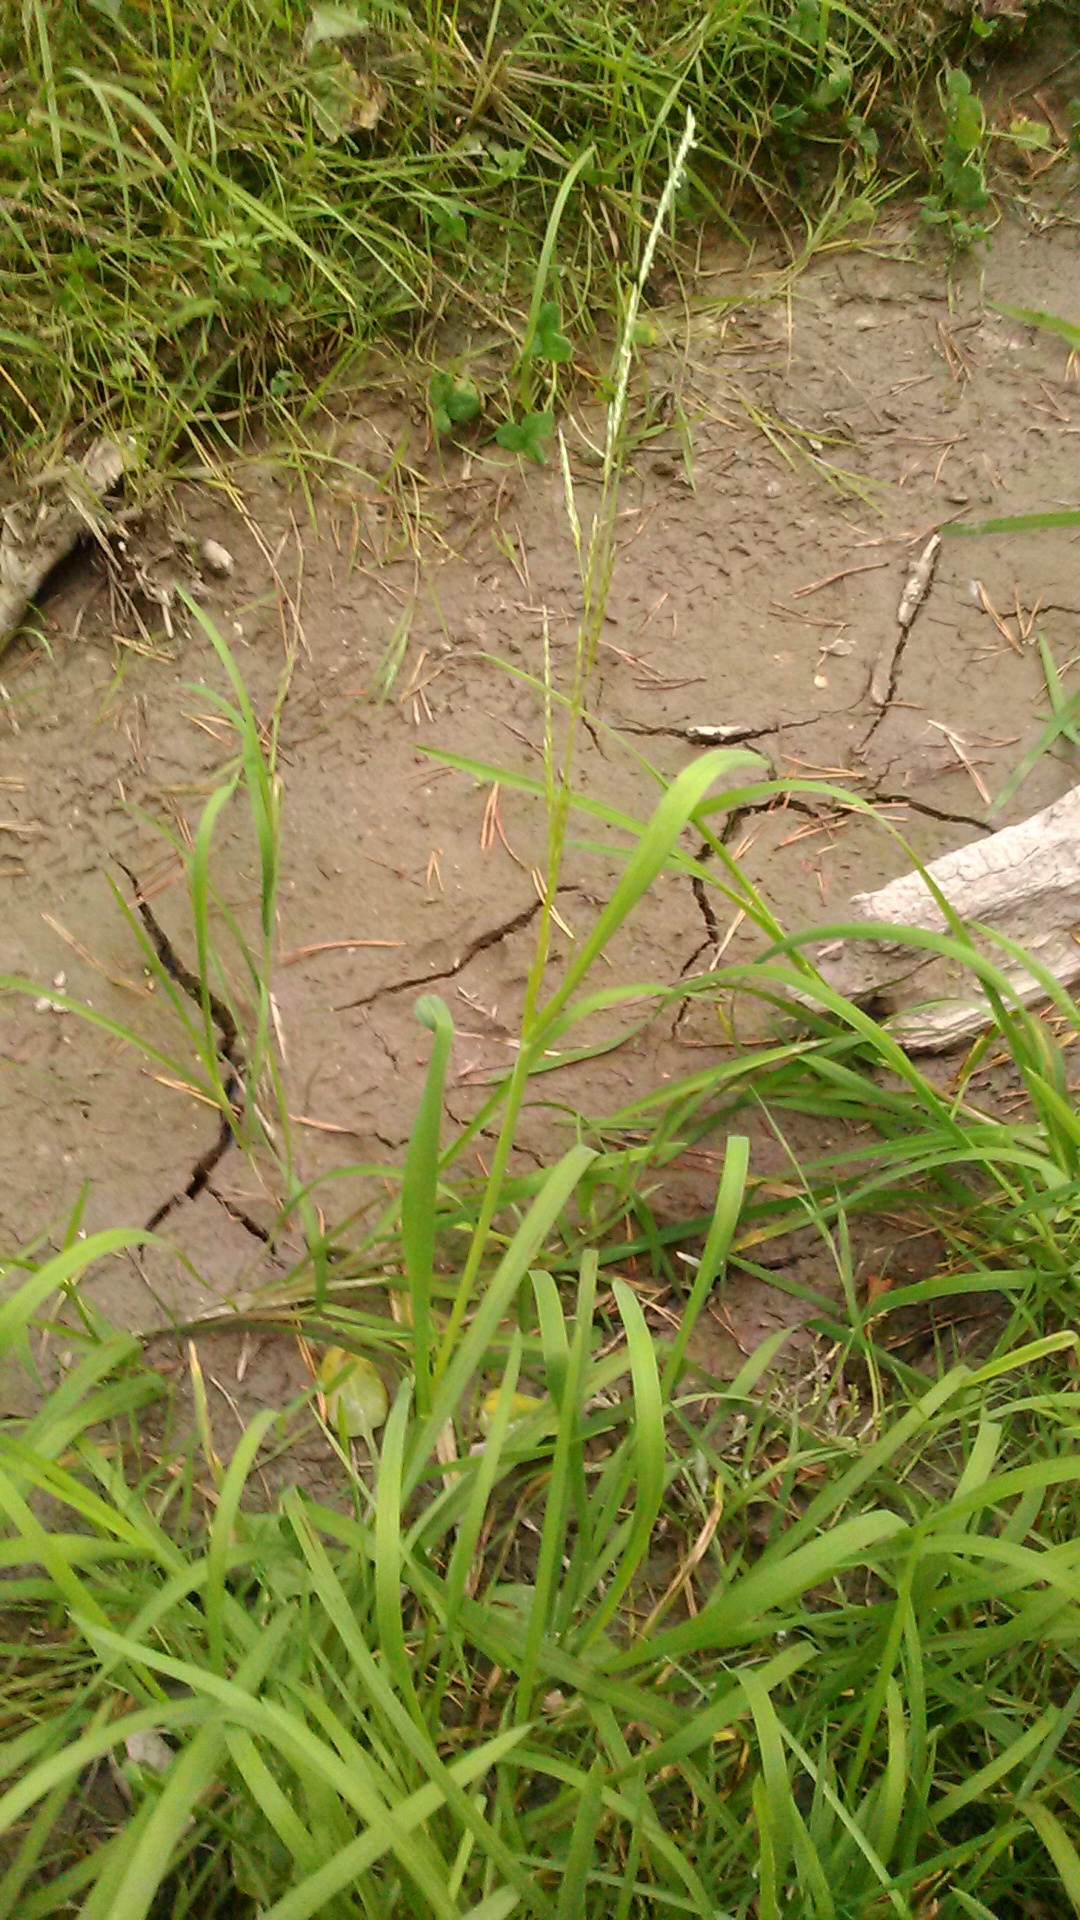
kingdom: Plantae
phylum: Tracheophyta
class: Liliopsida
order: Poales
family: Poaceae
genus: Glyceria
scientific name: Glyceria fluitans
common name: Floating sweet-grass
